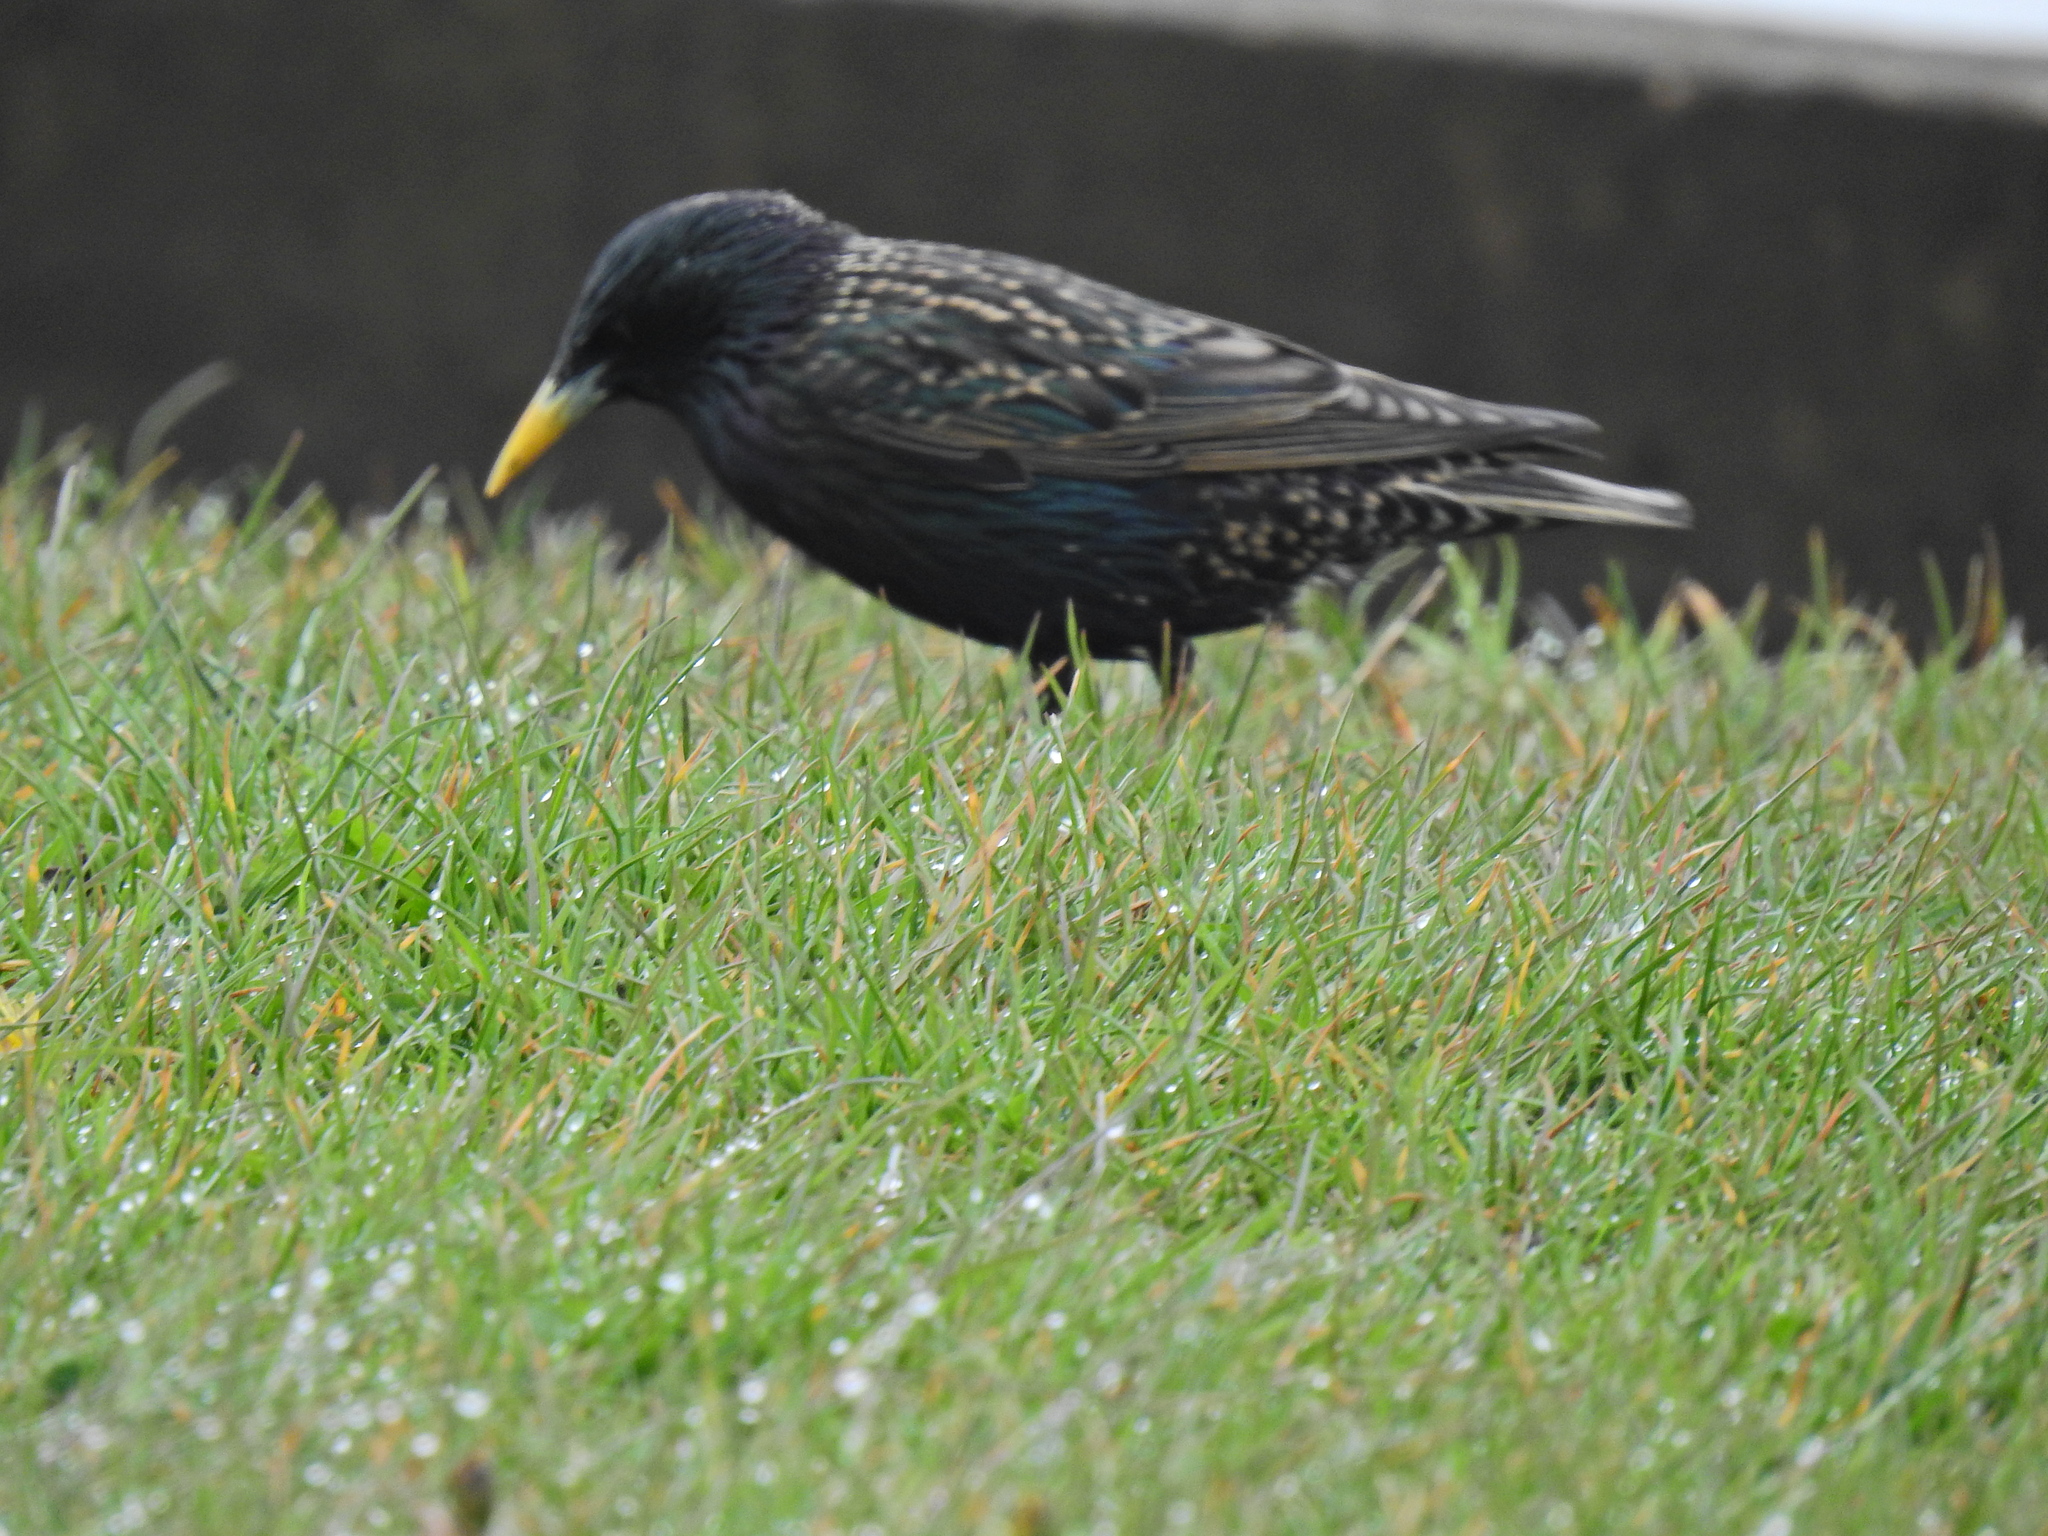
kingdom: Animalia
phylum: Chordata
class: Aves
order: Passeriformes
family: Sturnidae
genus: Sturnus
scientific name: Sturnus vulgaris
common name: Common starling
